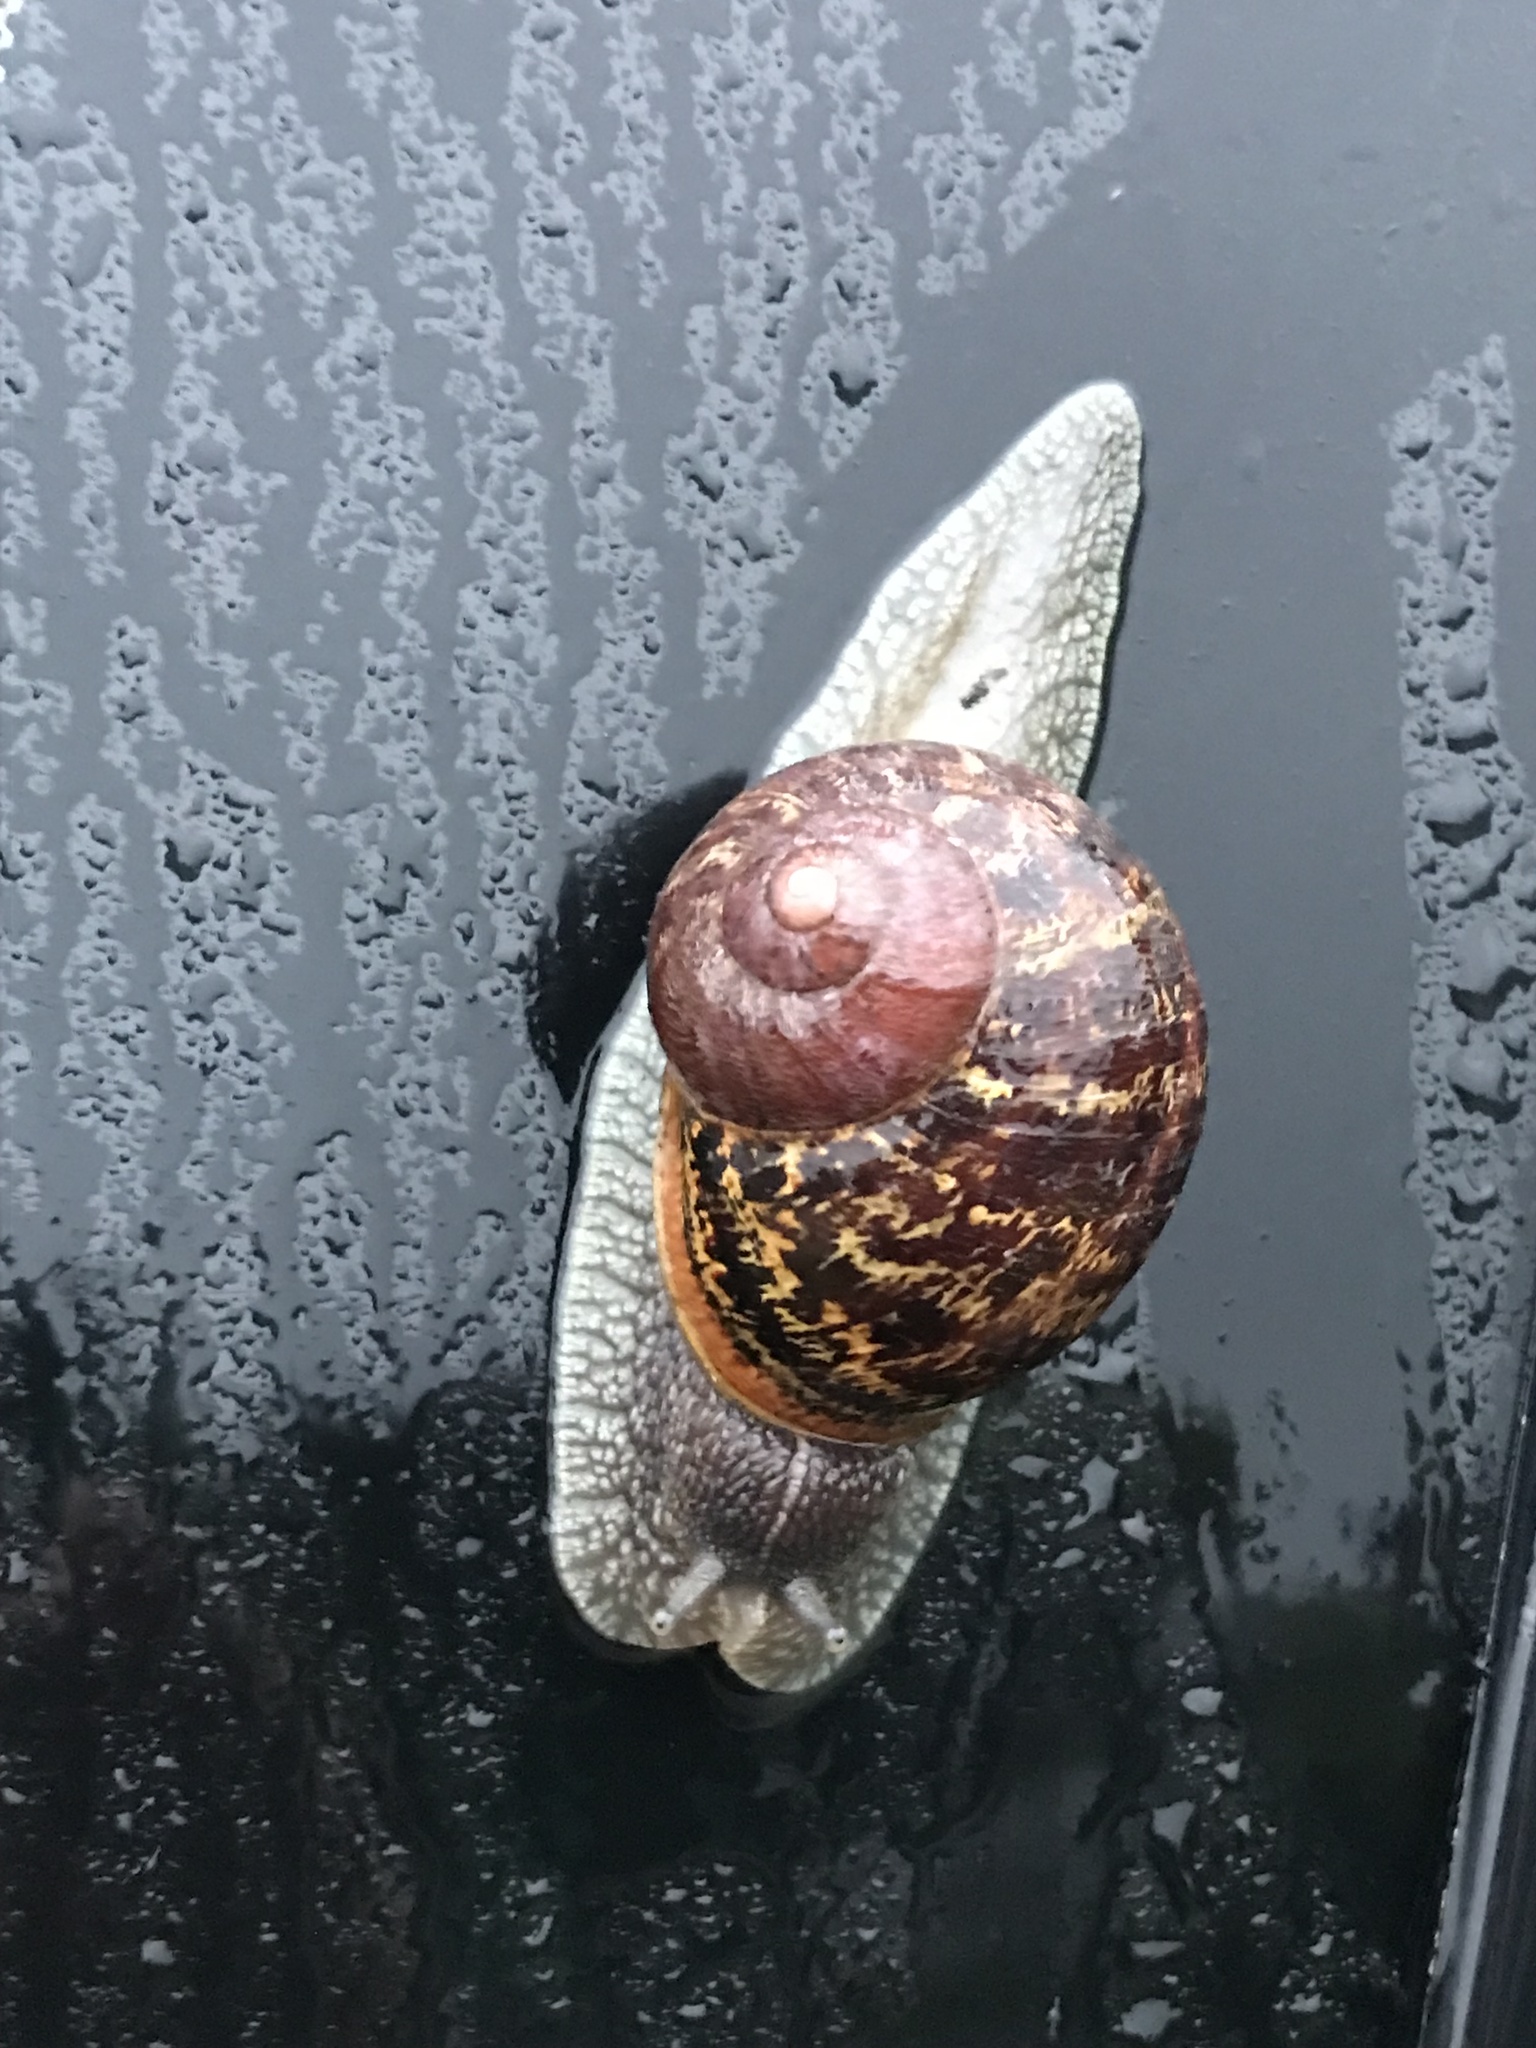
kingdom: Animalia
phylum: Mollusca
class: Gastropoda
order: Stylommatophora
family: Helicidae
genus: Cornu
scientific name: Cornu aspersum
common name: Brown garden snail
